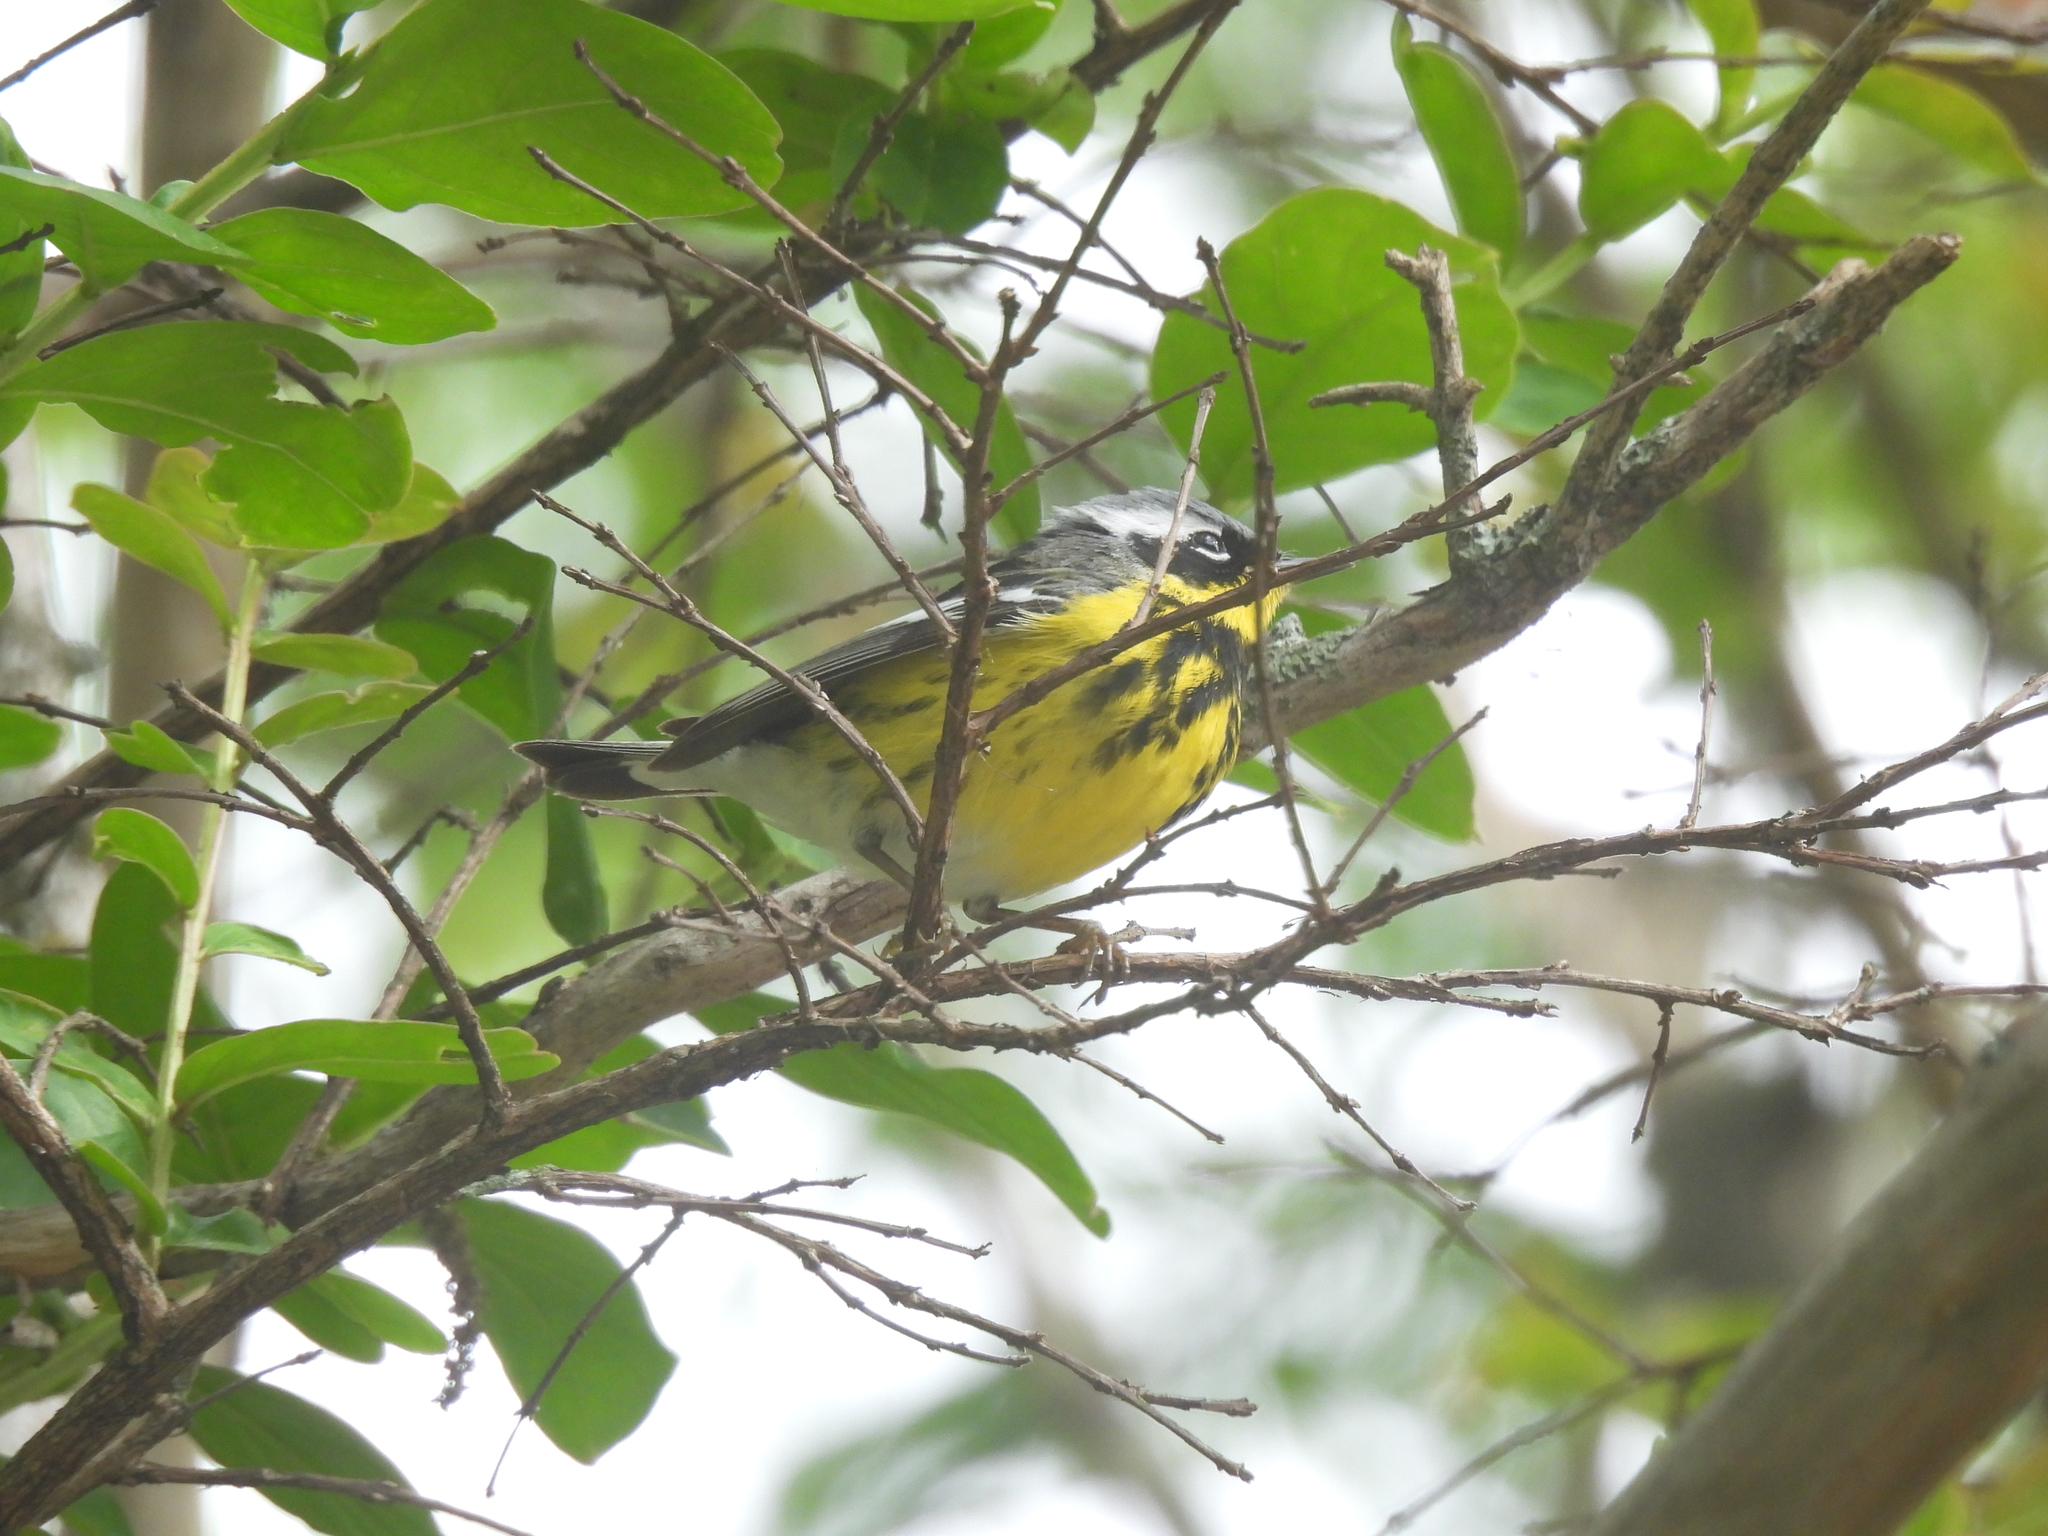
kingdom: Animalia
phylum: Chordata
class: Aves
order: Passeriformes
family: Parulidae
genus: Setophaga
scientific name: Setophaga magnolia
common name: Magnolia warbler
